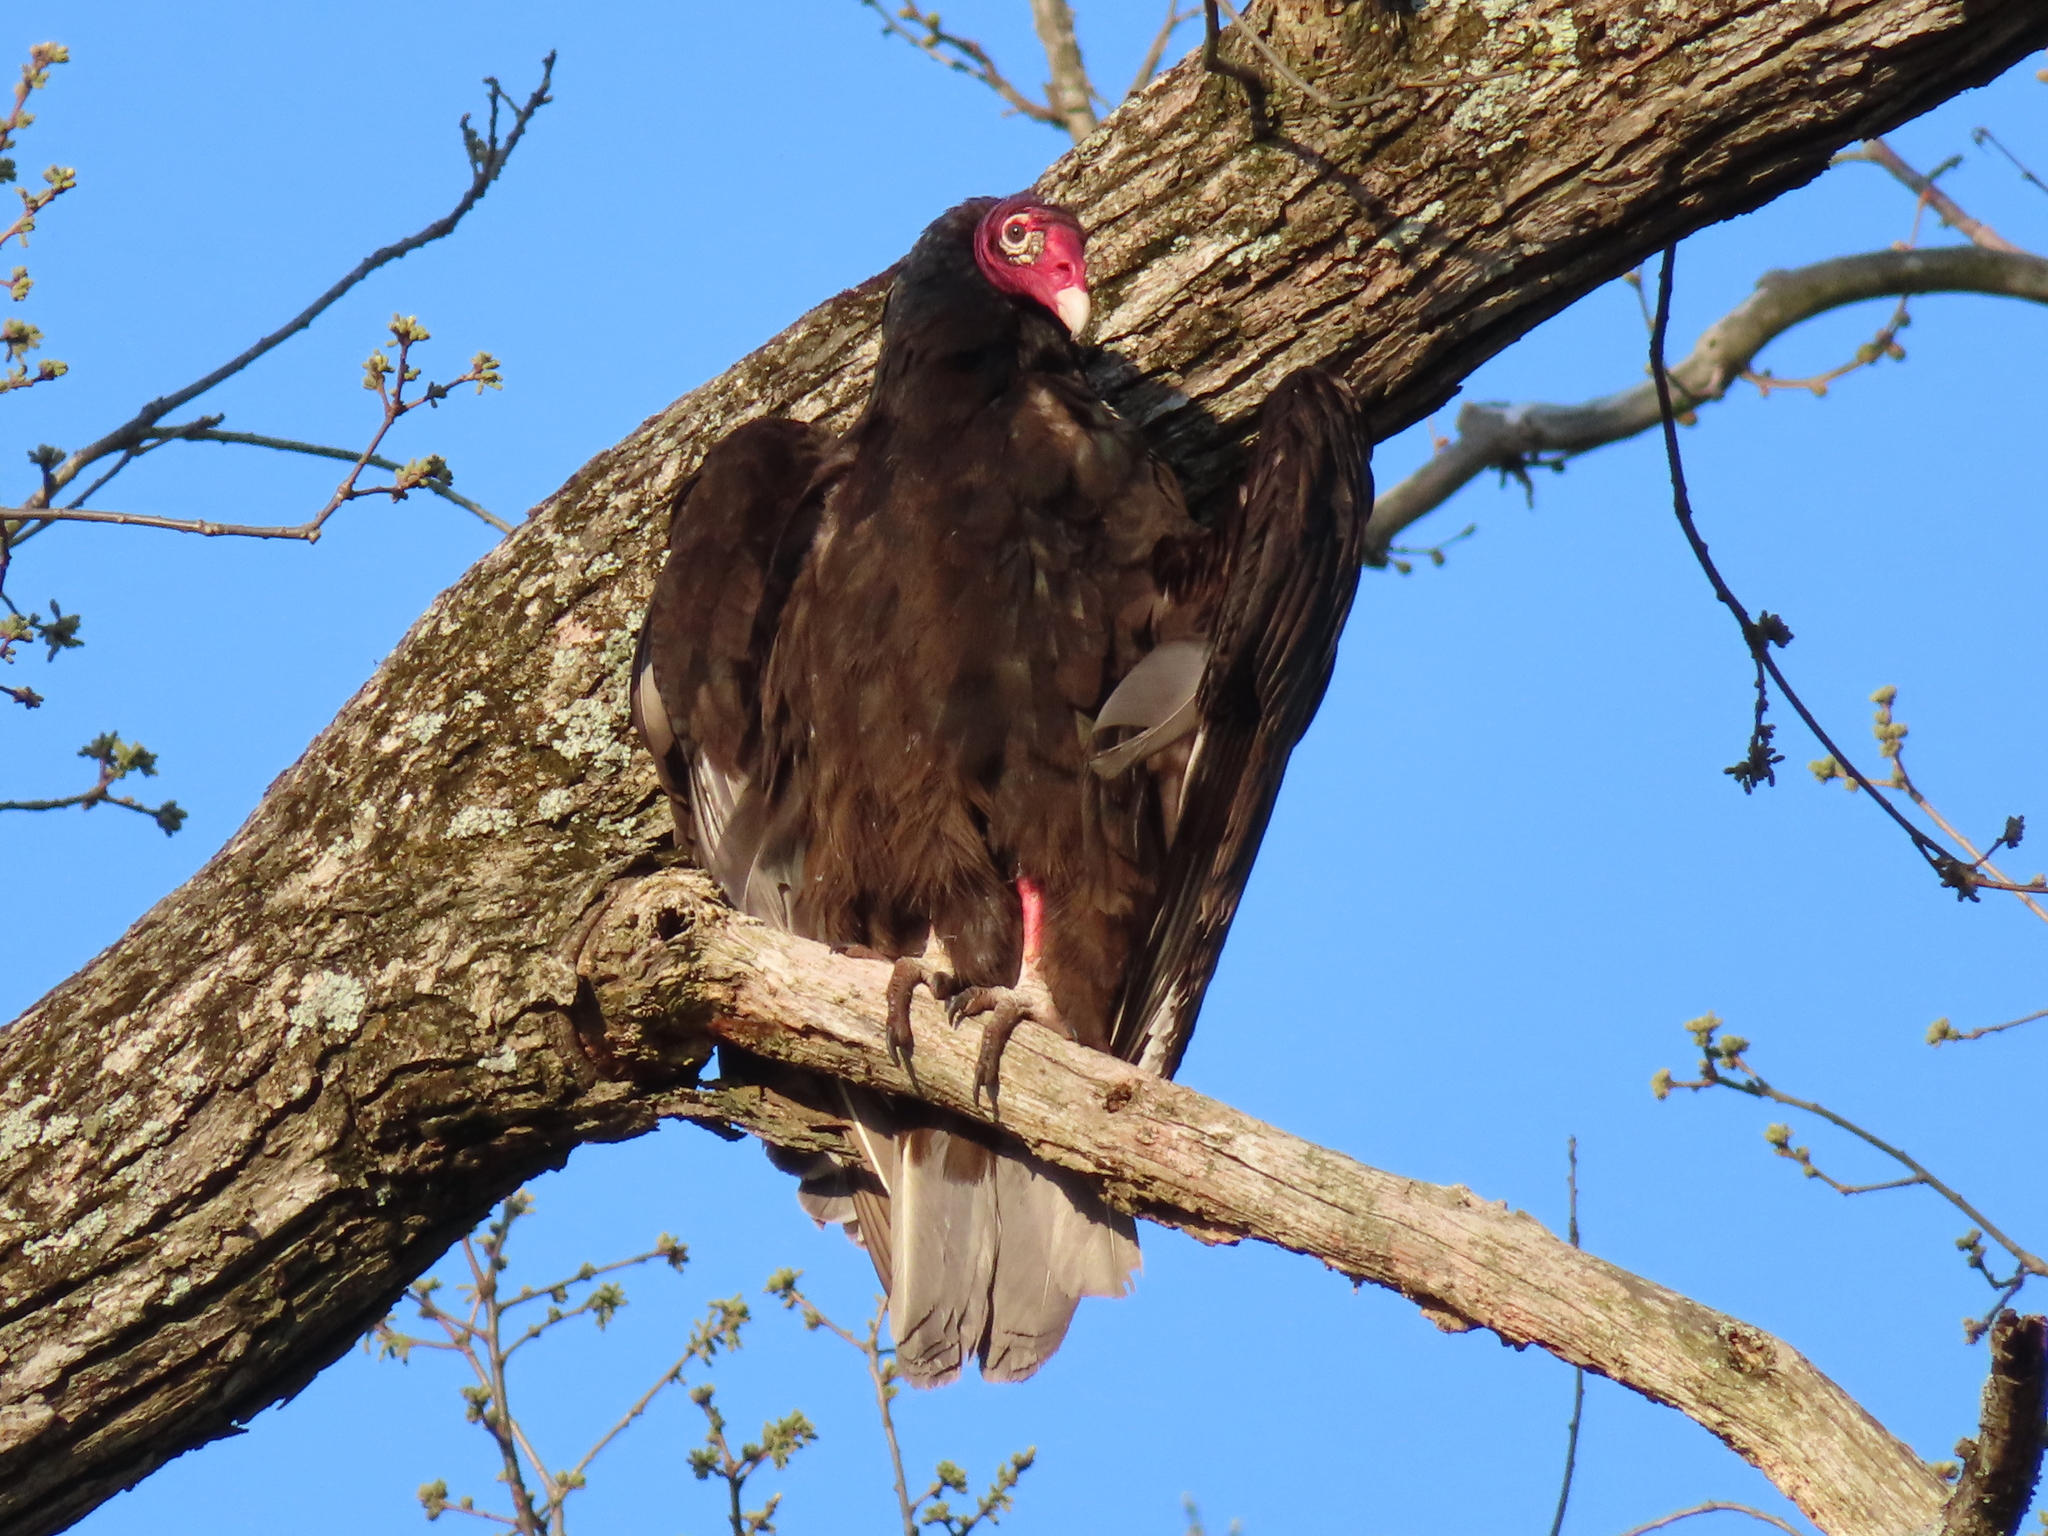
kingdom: Animalia
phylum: Chordata
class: Aves
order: Accipitriformes
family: Cathartidae
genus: Cathartes
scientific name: Cathartes aura
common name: Turkey vulture
